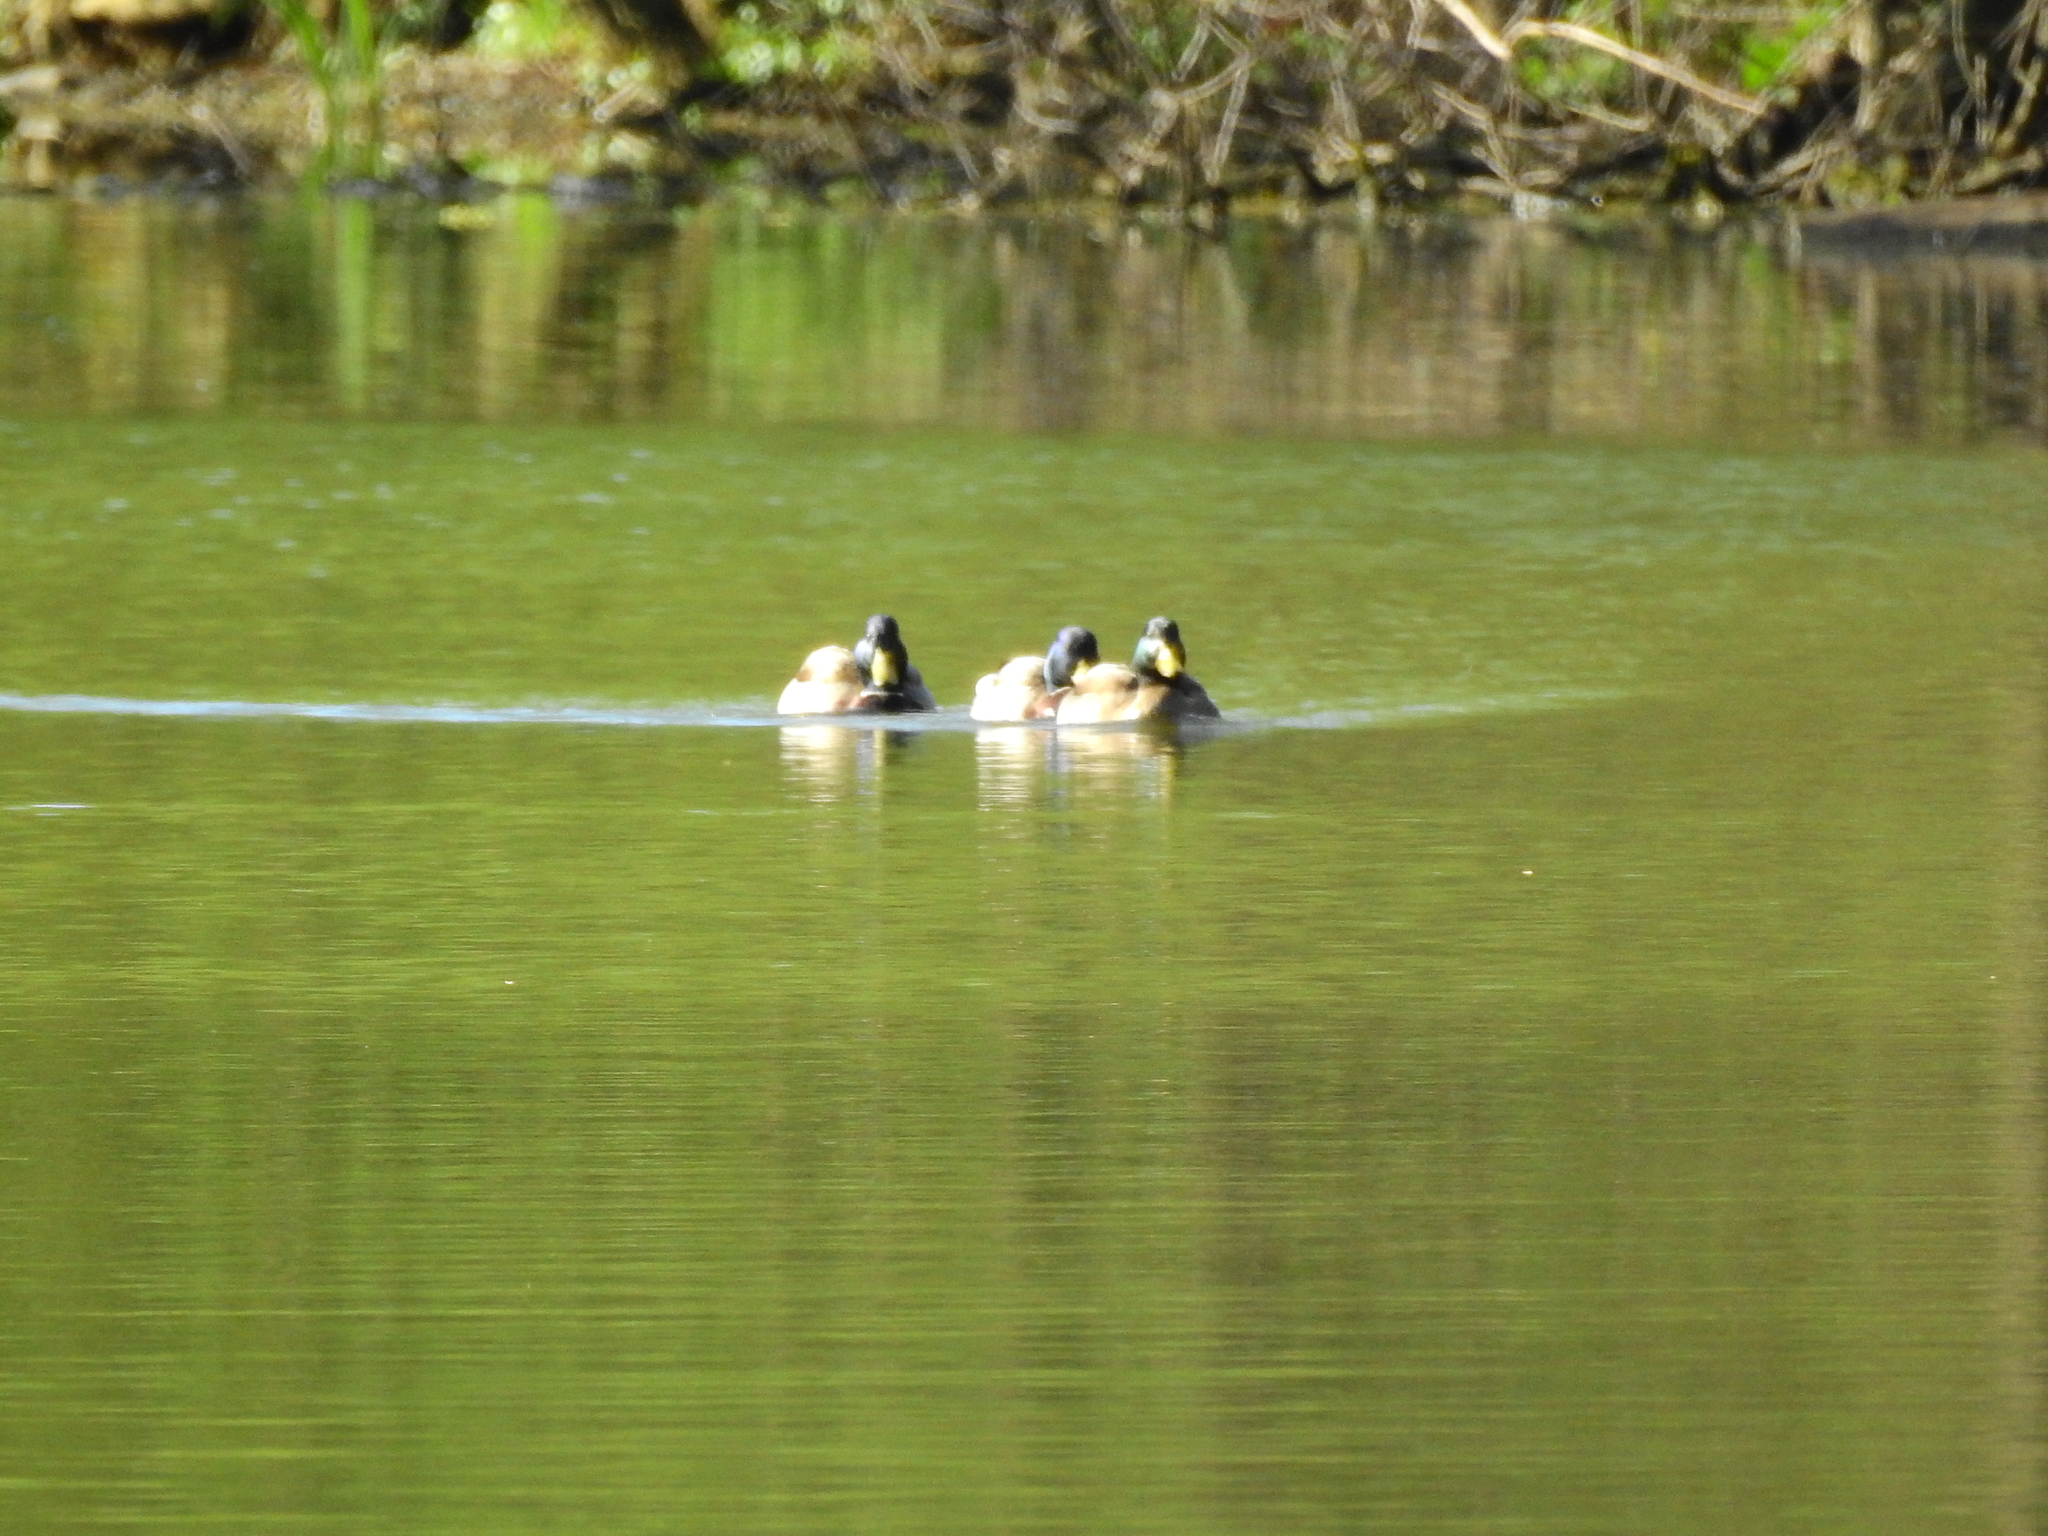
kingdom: Animalia
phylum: Chordata
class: Aves
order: Anseriformes
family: Anatidae
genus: Anas
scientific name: Anas platyrhynchos
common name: Mallard
